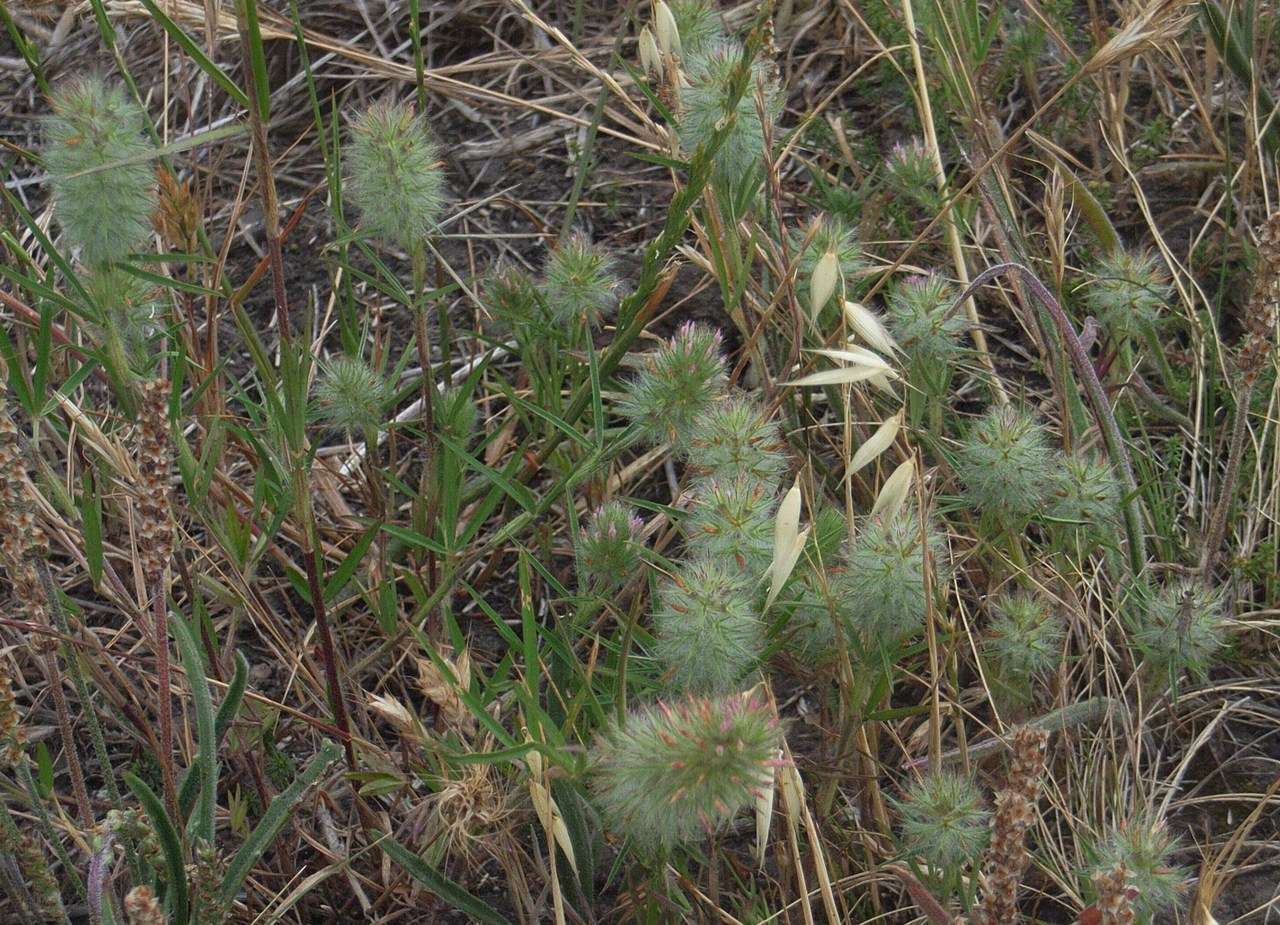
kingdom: Plantae
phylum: Tracheophyta
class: Magnoliopsida
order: Fabales
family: Fabaceae
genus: Trifolium
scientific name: Trifolium angustifolium
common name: Narrow clover
